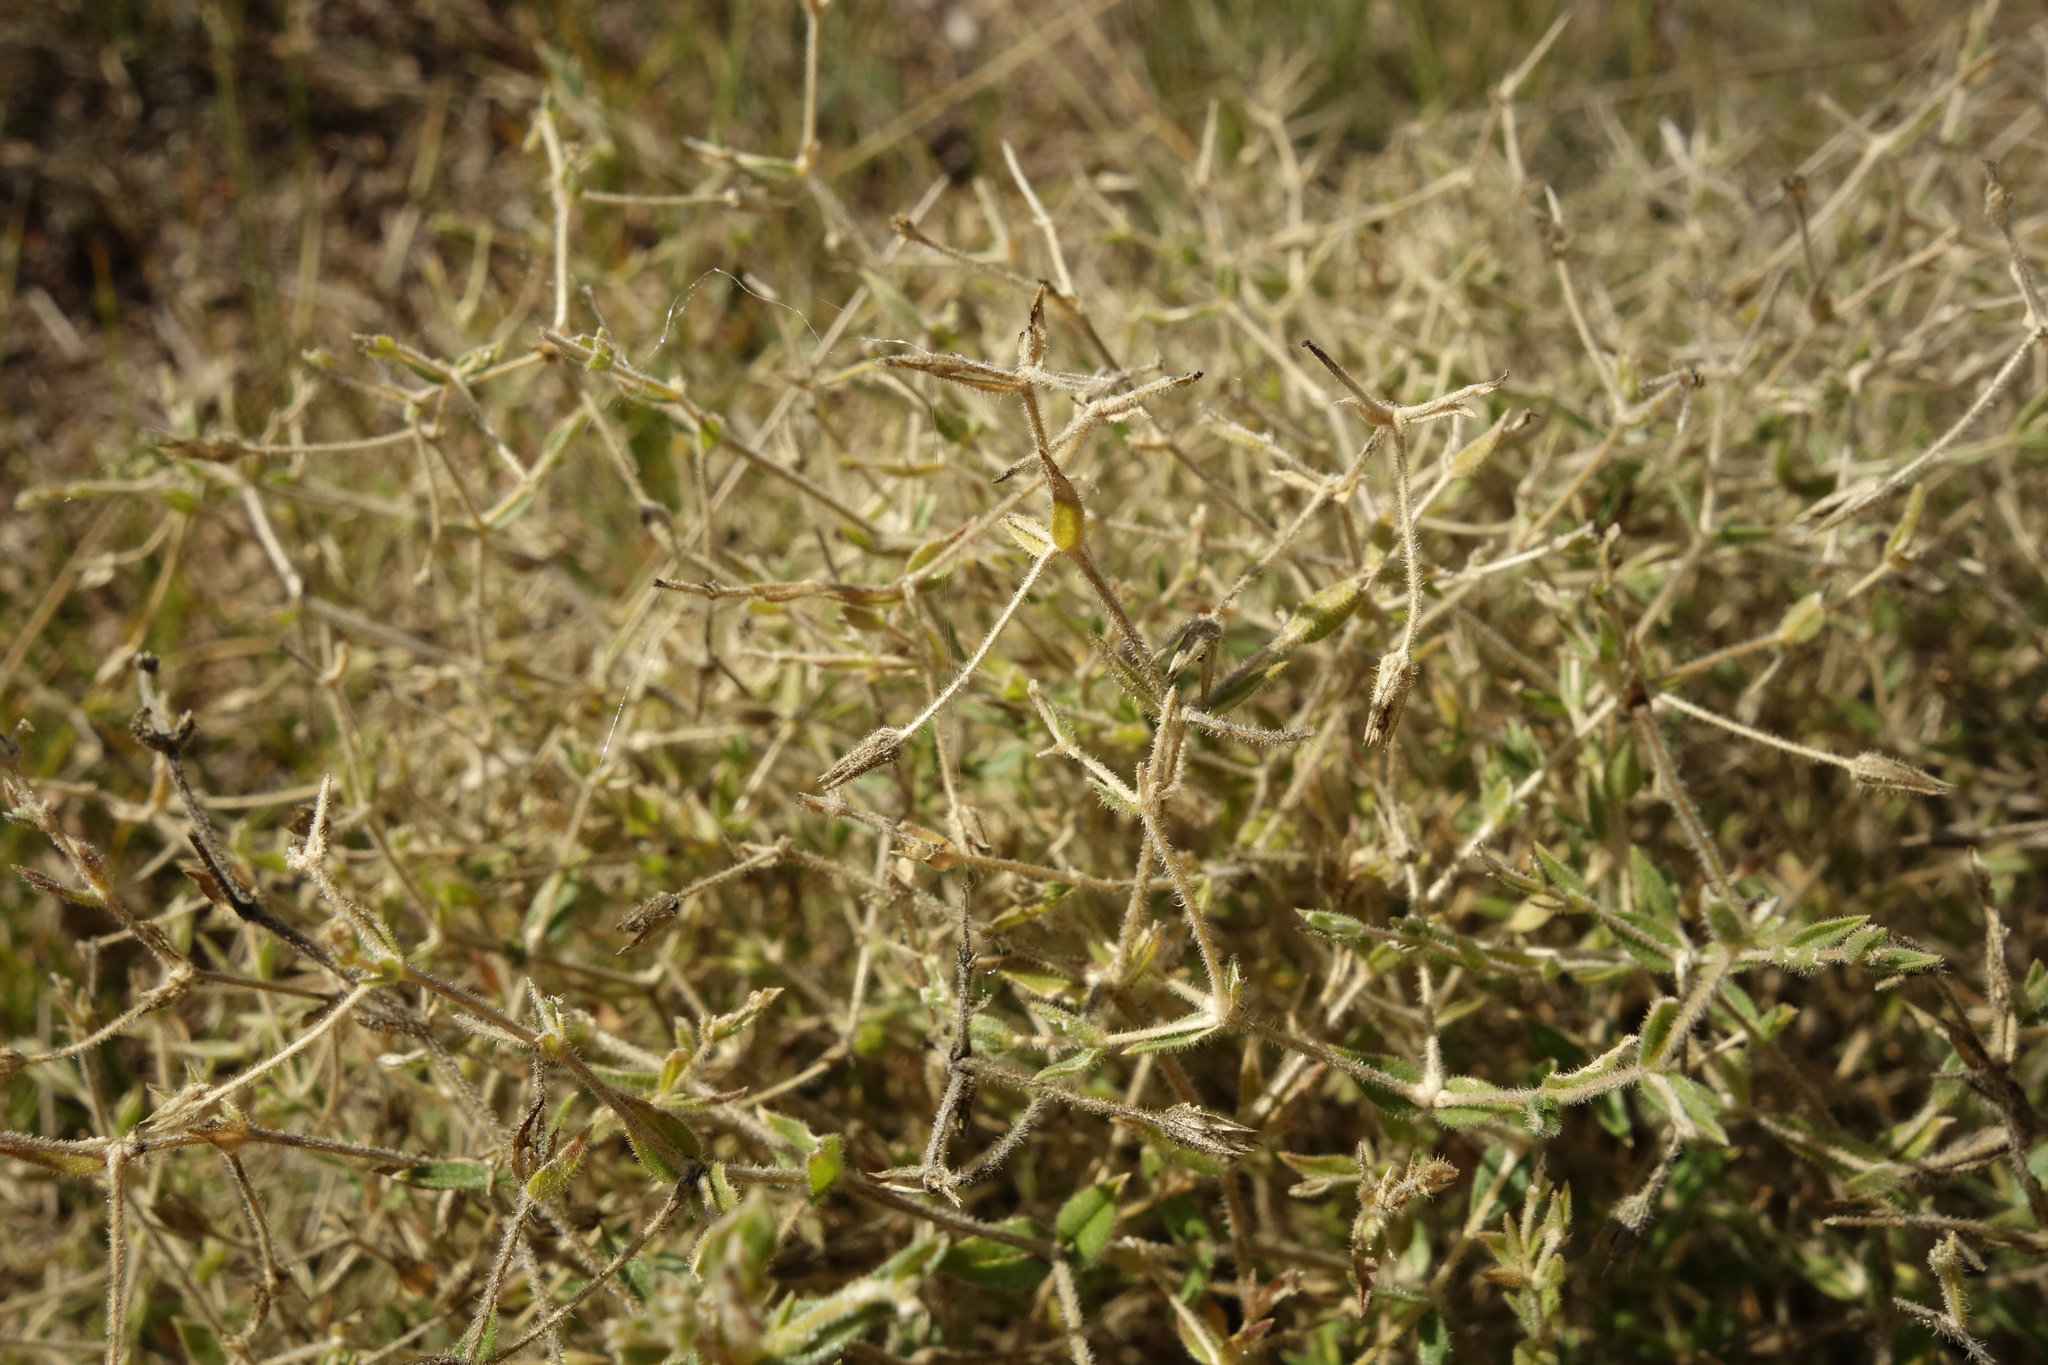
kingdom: Plantae
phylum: Tracheophyta
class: Magnoliopsida
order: Caryophyllales
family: Caryophyllaceae
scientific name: Caryophyllaceae
